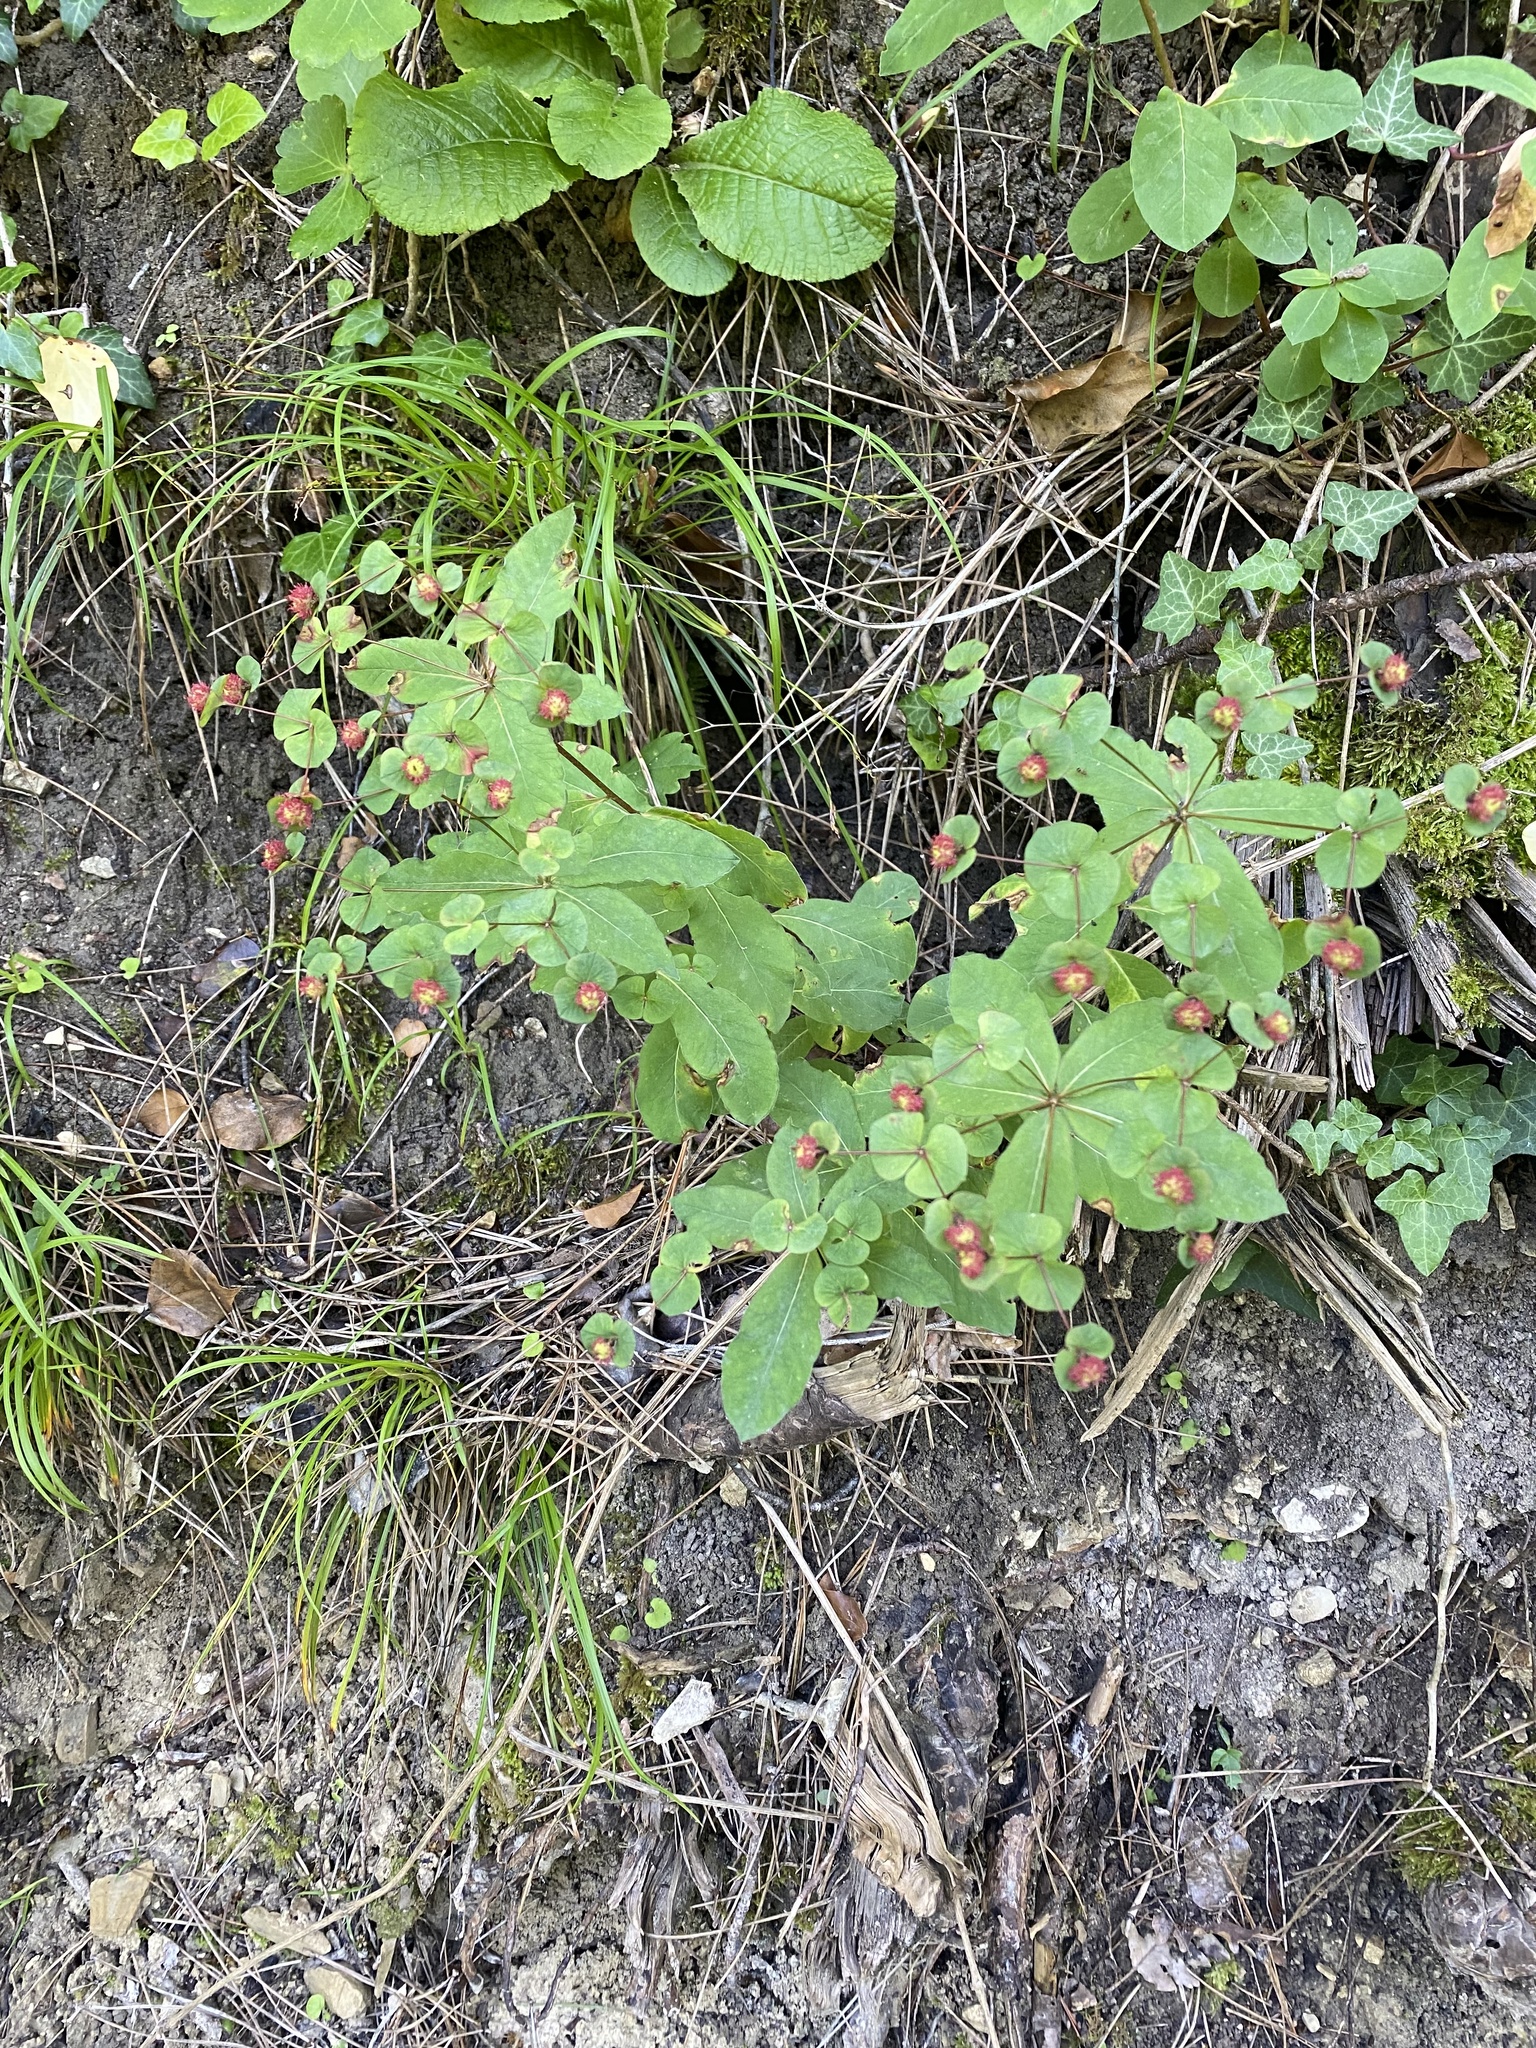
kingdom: Plantae
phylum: Tracheophyta
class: Magnoliopsida
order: Malpighiales
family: Euphorbiaceae
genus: Euphorbia
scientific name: Euphorbia squamosa
